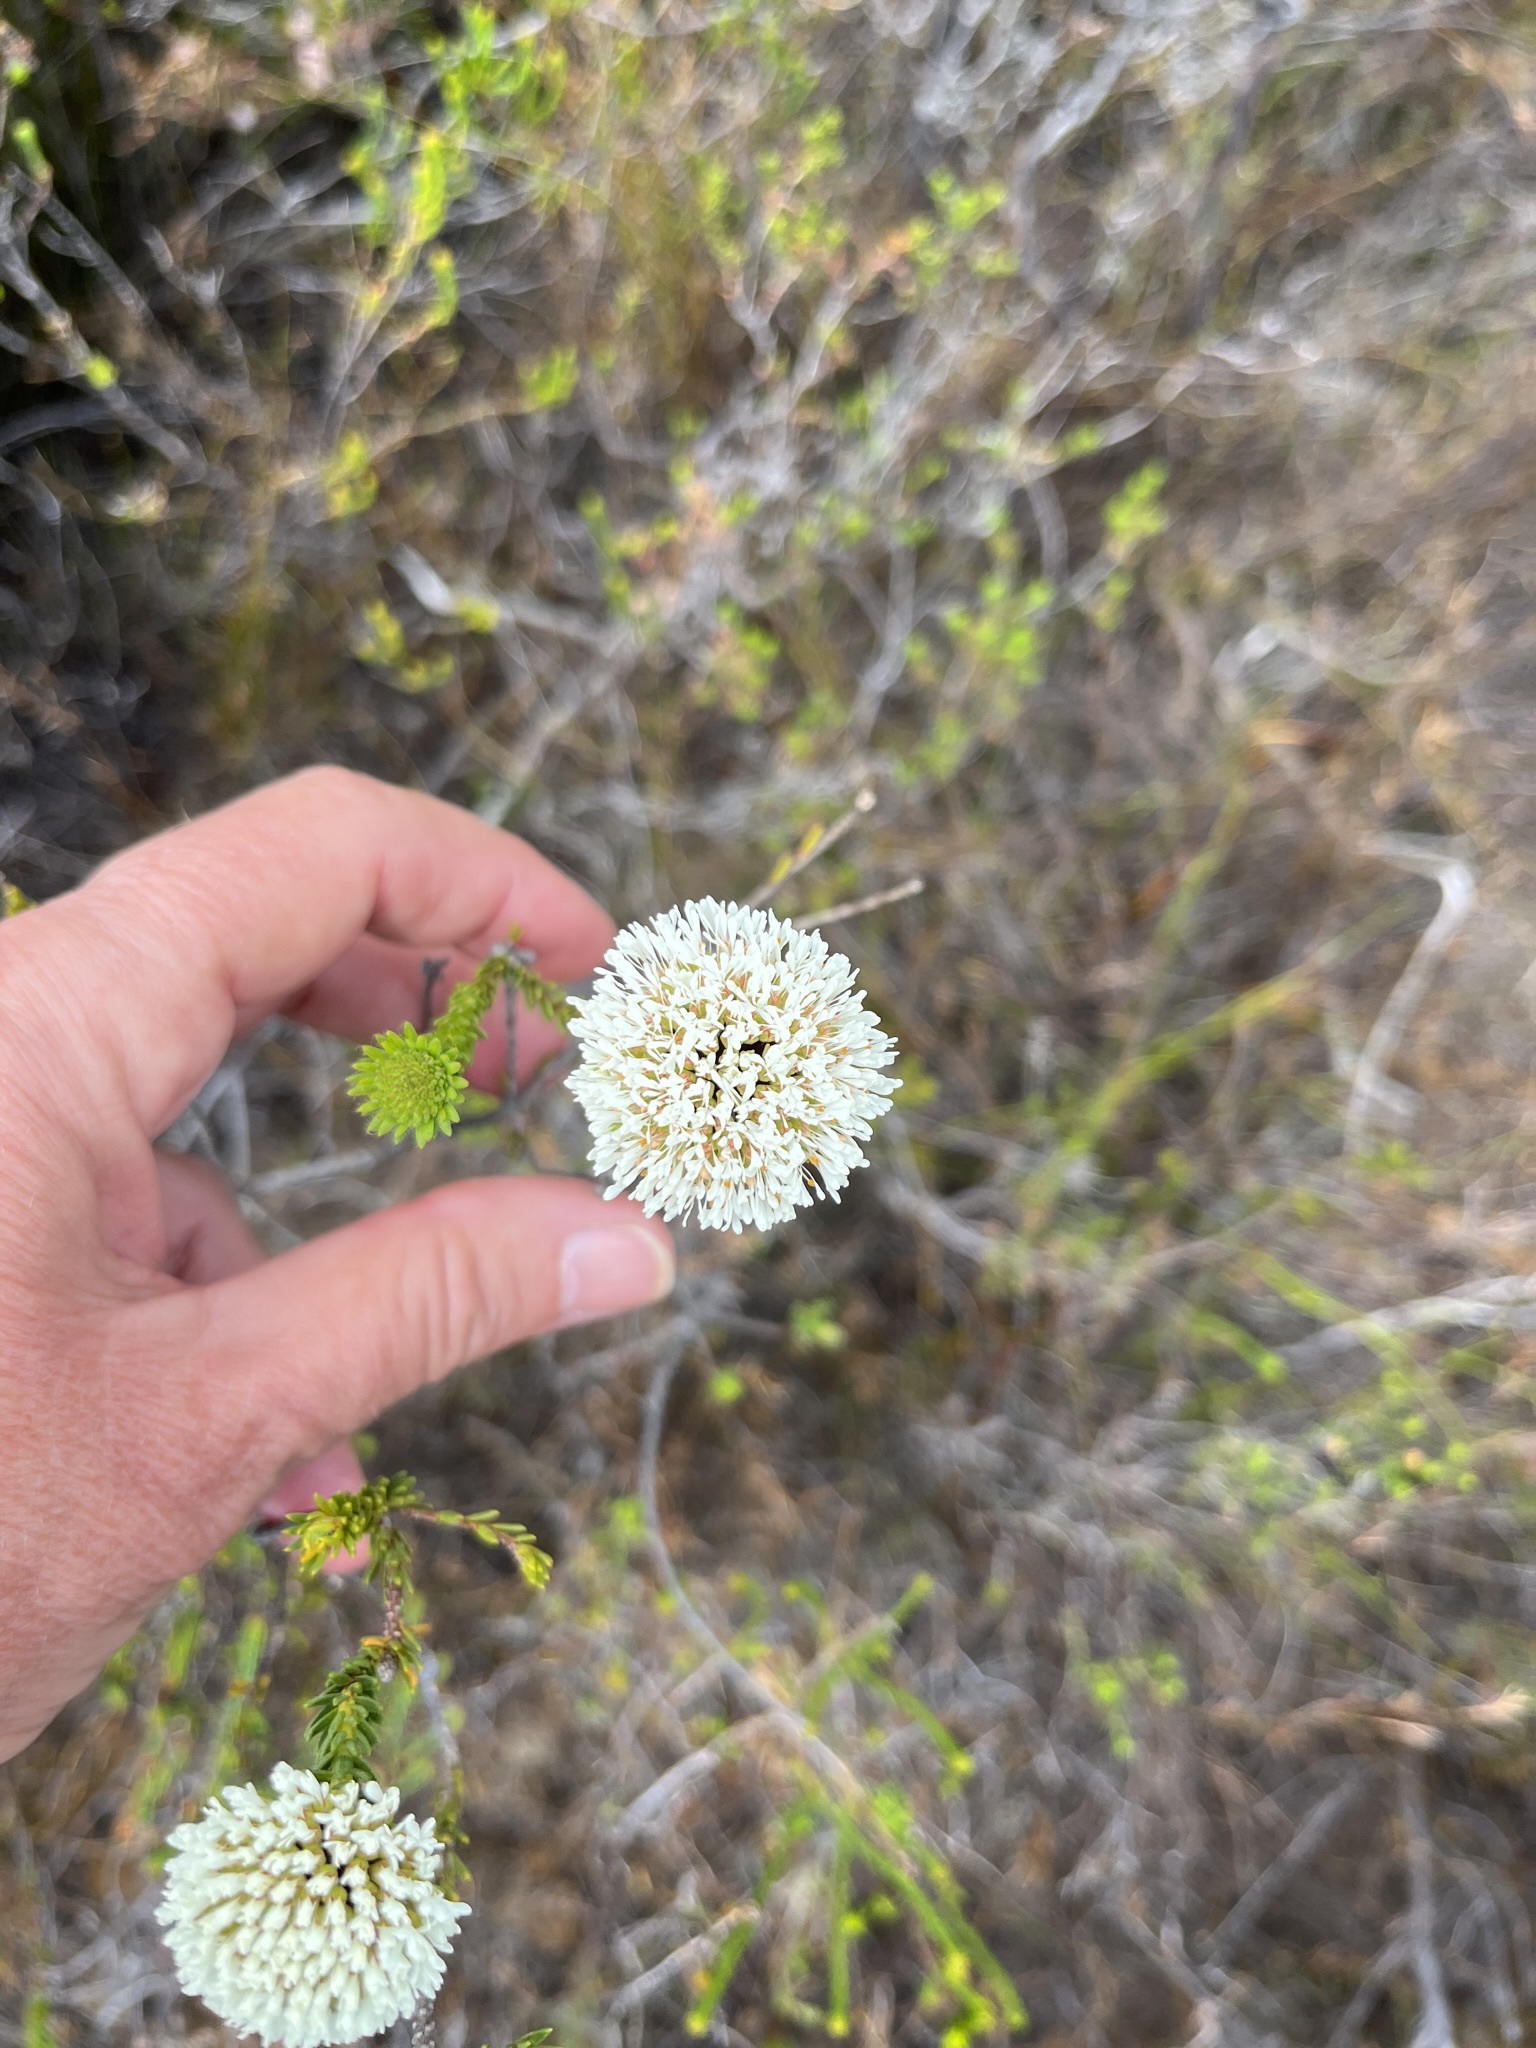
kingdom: Plantae
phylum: Tracheophyta
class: Magnoliopsida
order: Sapindales
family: Rutaceae
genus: Agathosma
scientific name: Agathosma bifida
